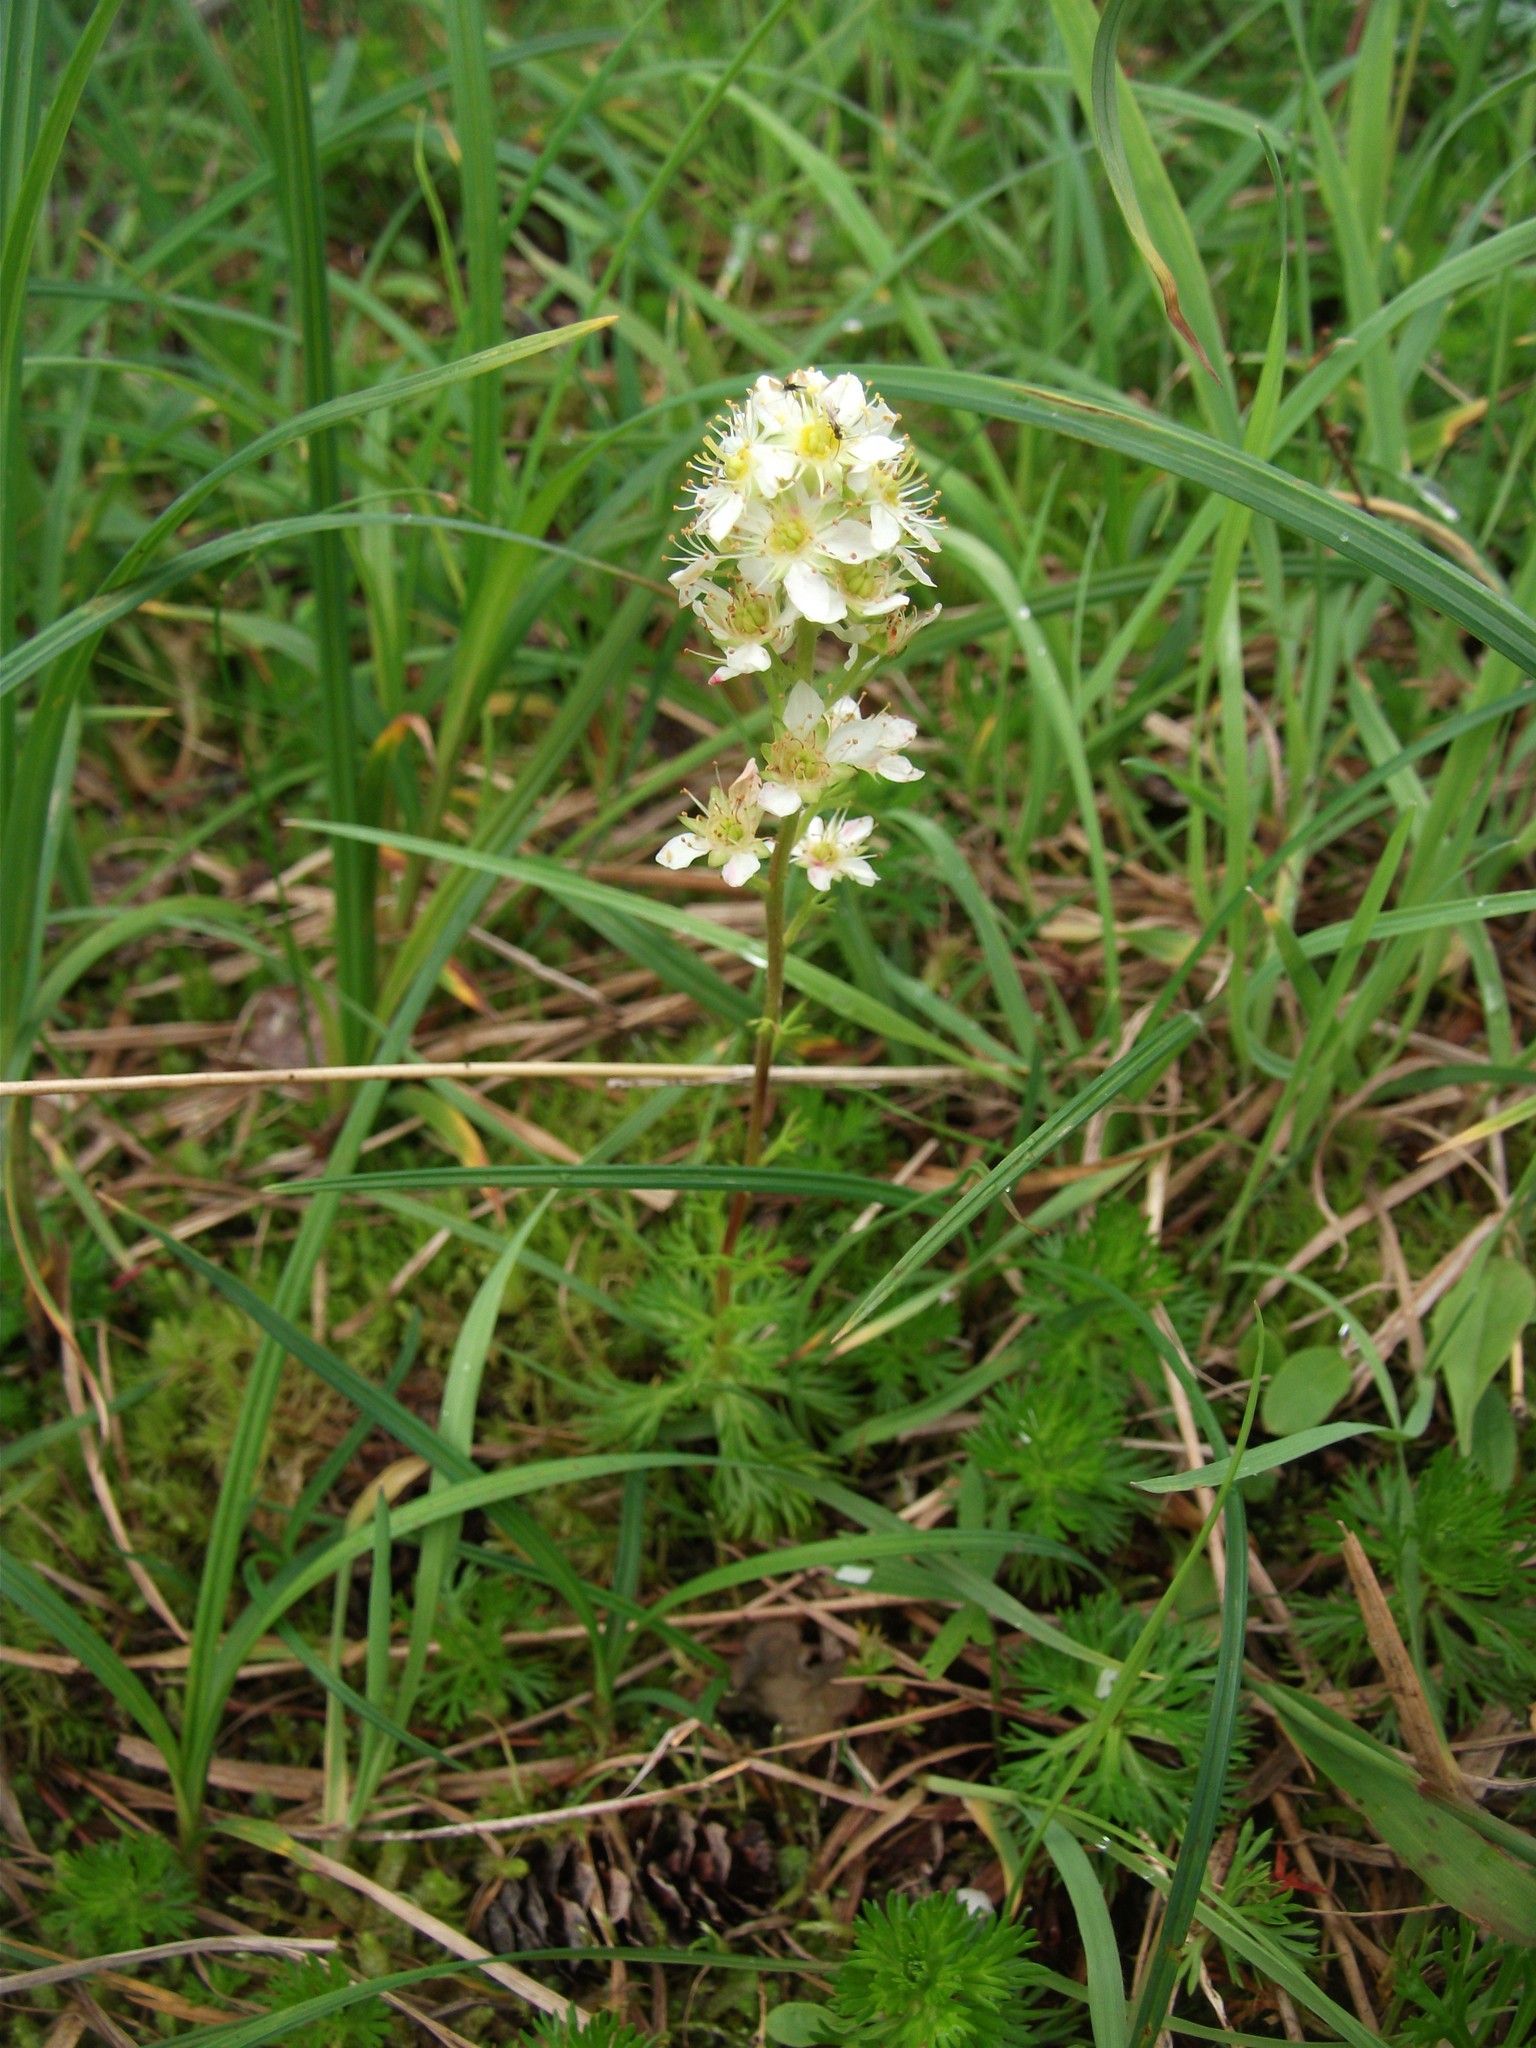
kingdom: Plantae
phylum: Tracheophyta
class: Magnoliopsida
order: Rosales
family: Rosaceae
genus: Luetkea
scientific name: Luetkea pectinata
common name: Partridgefoot
